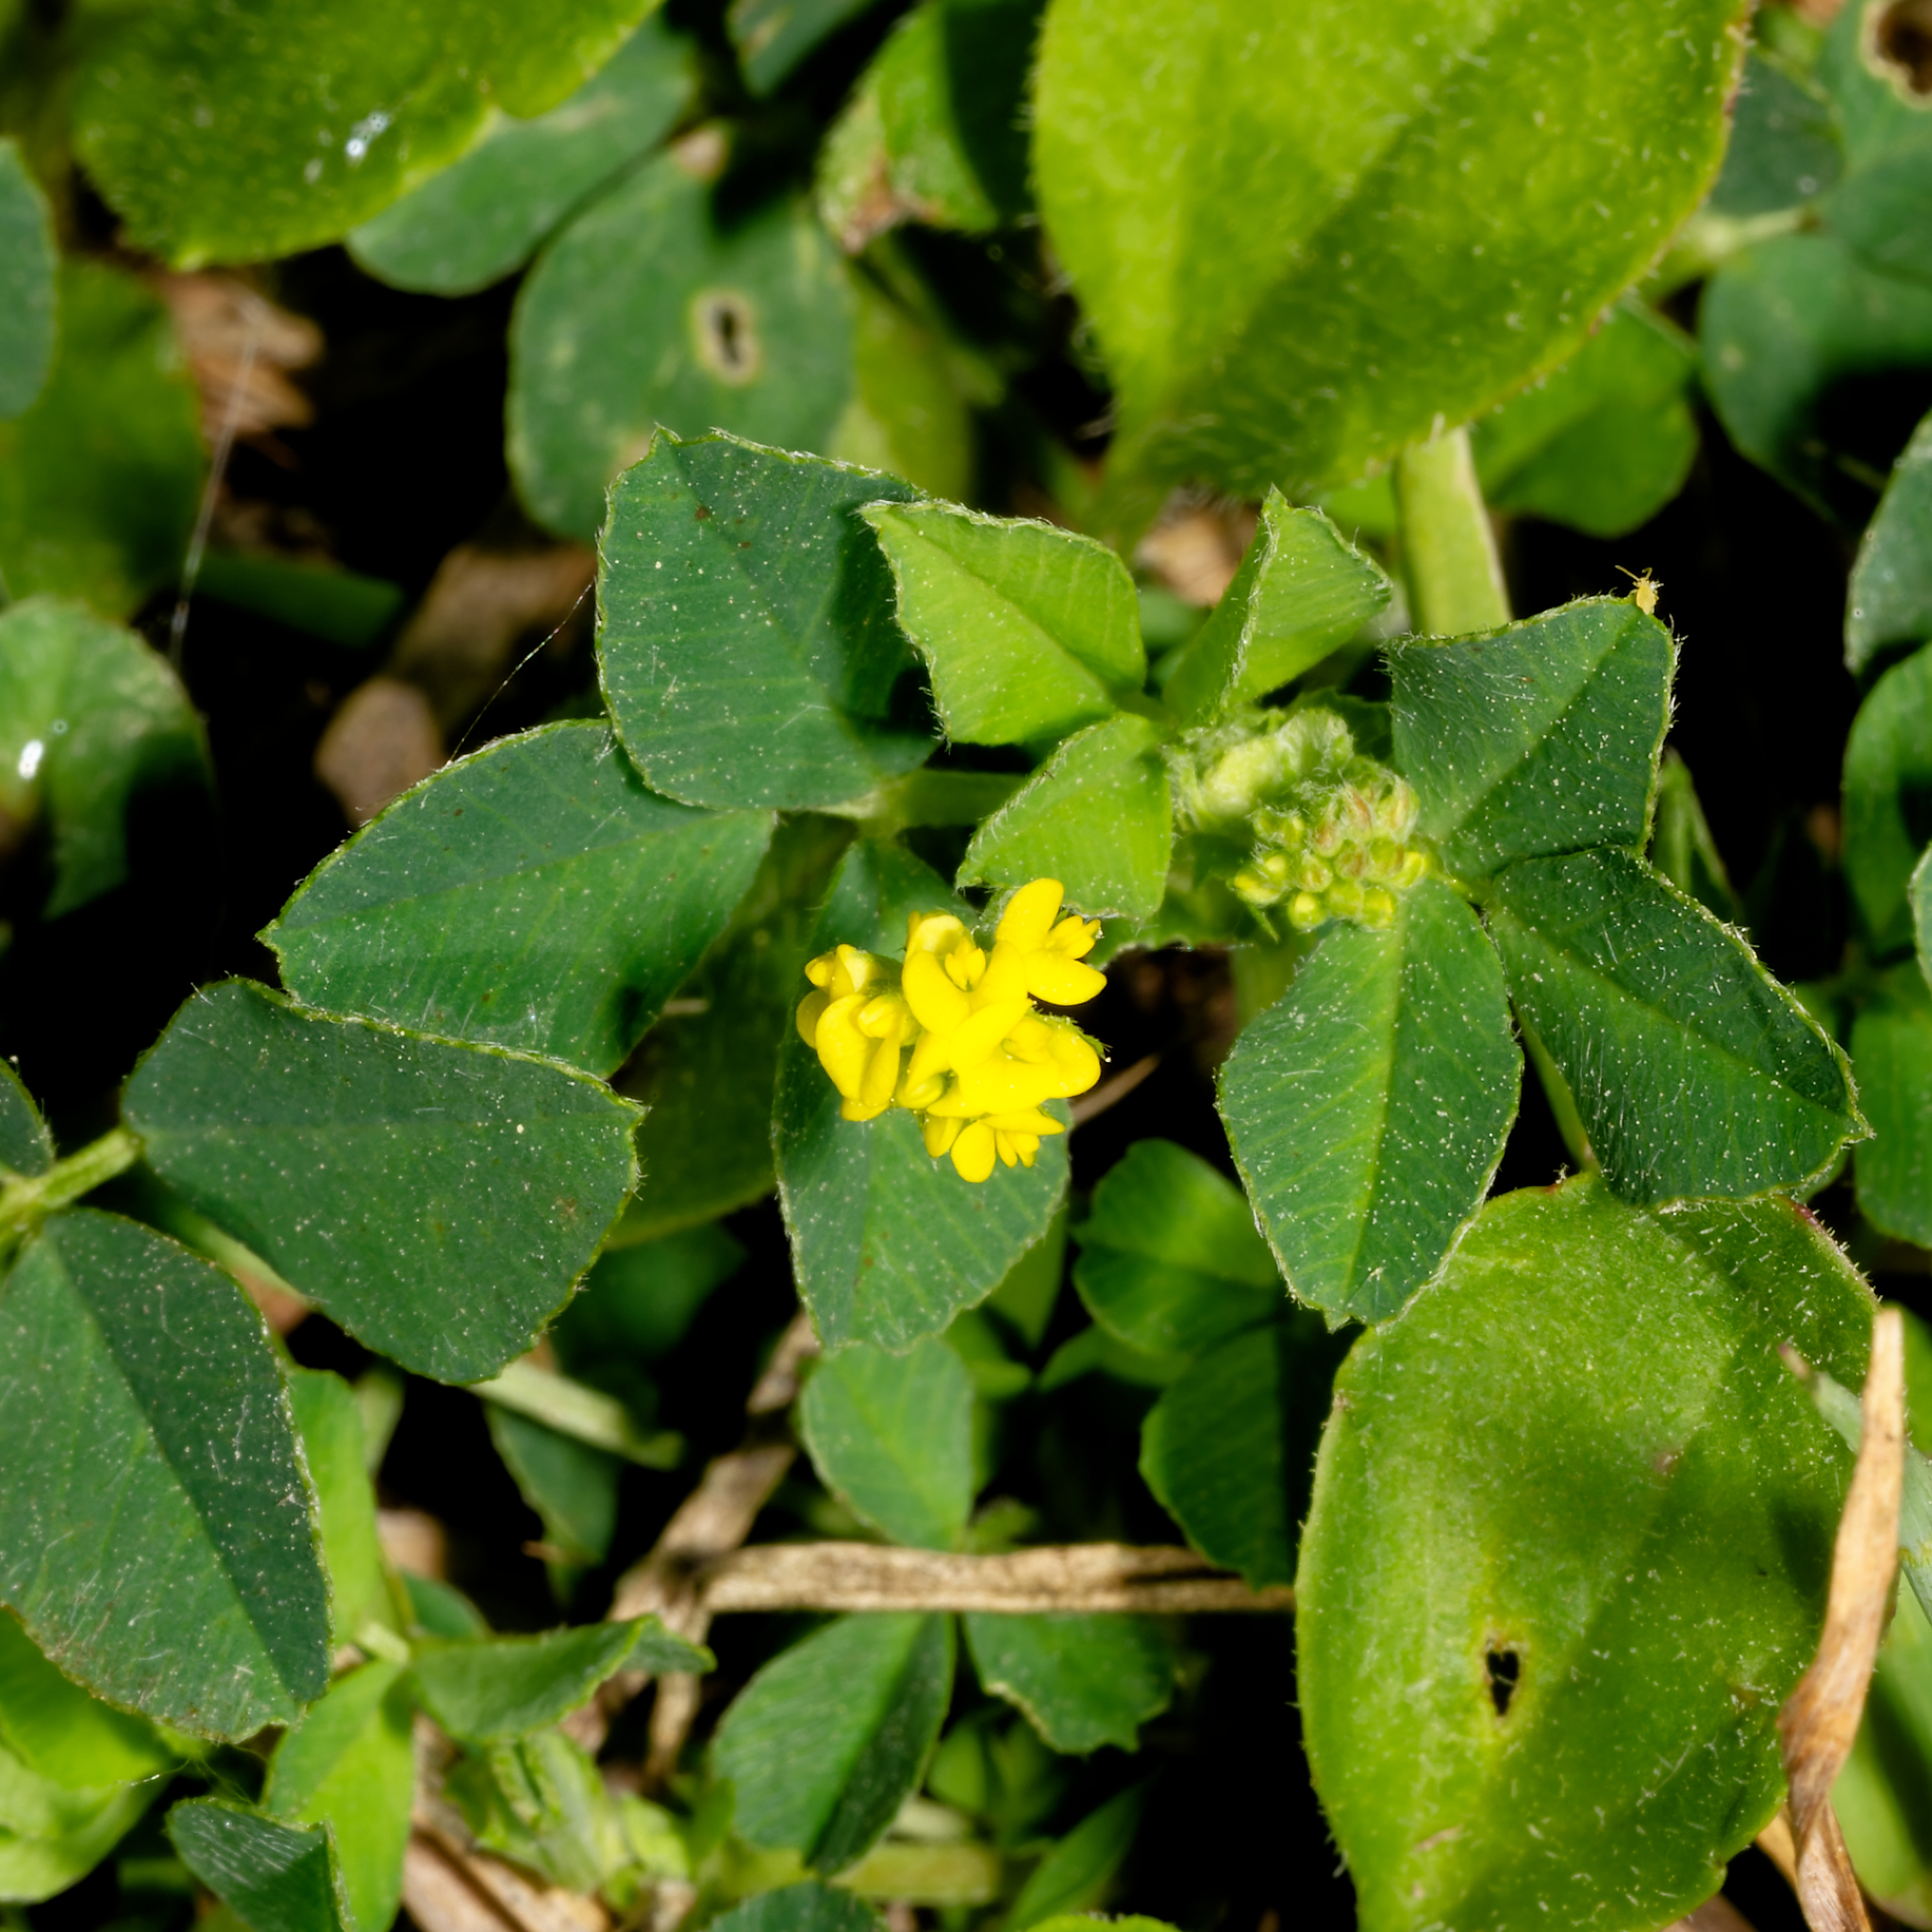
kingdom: Plantae
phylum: Tracheophyta
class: Magnoliopsida
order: Fabales
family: Fabaceae
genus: Medicago
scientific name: Medicago lupulina
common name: Black medick
